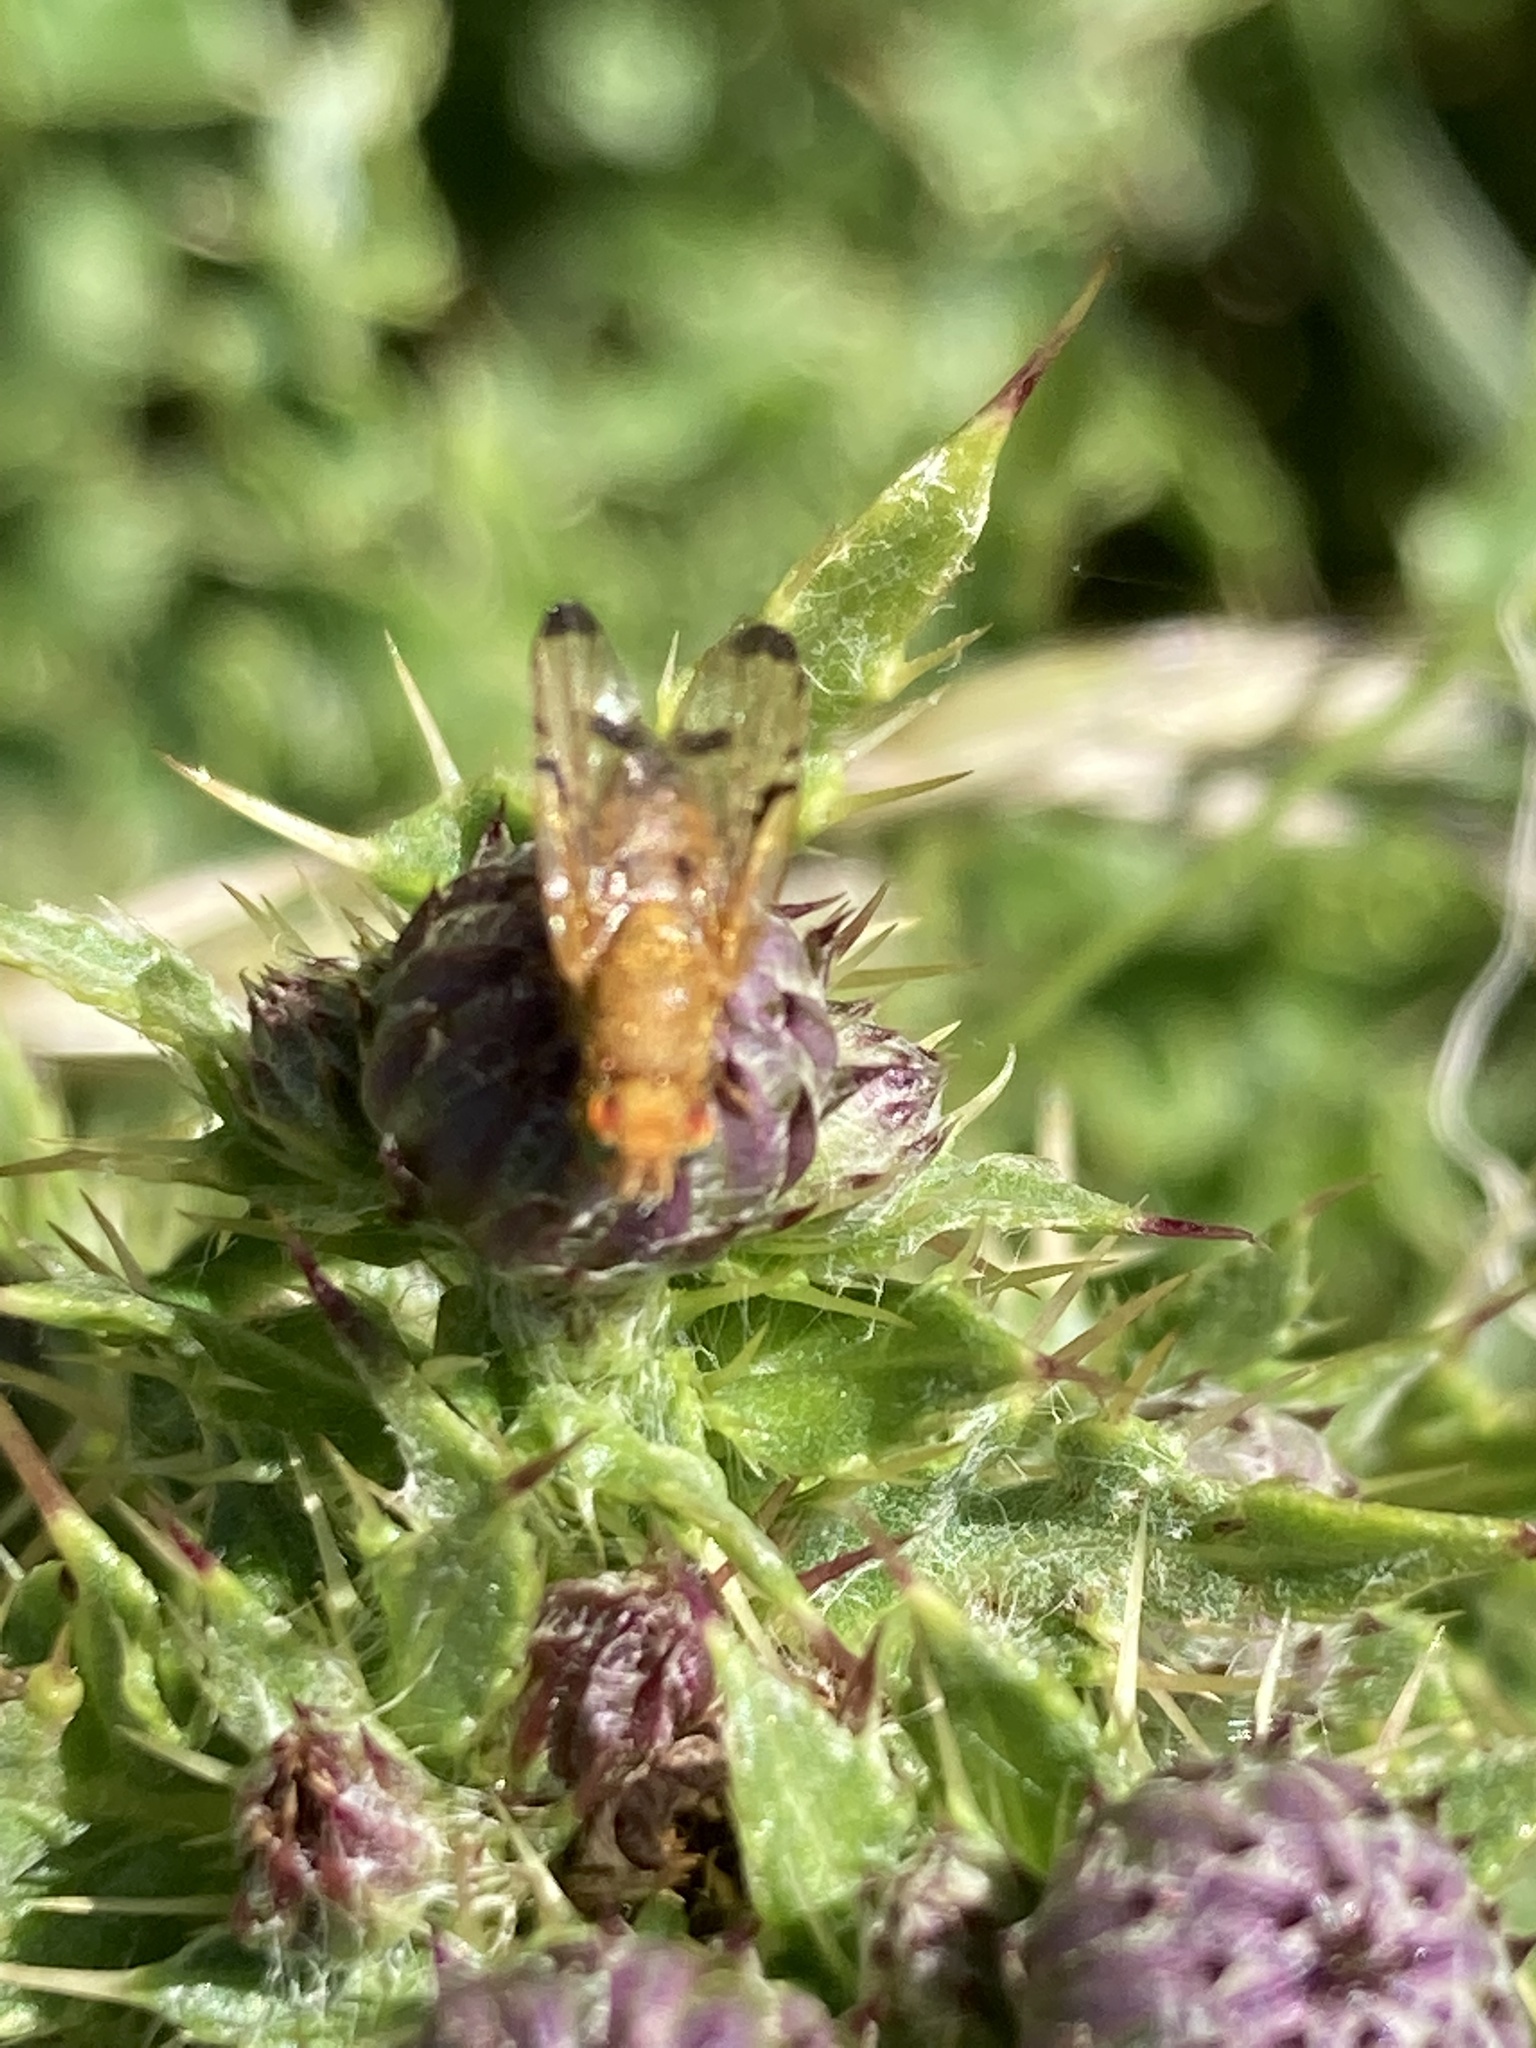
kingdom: Animalia
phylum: Arthropoda
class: Insecta
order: Diptera
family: Tephritidae
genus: Xyphosia
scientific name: Xyphosia miliaria
